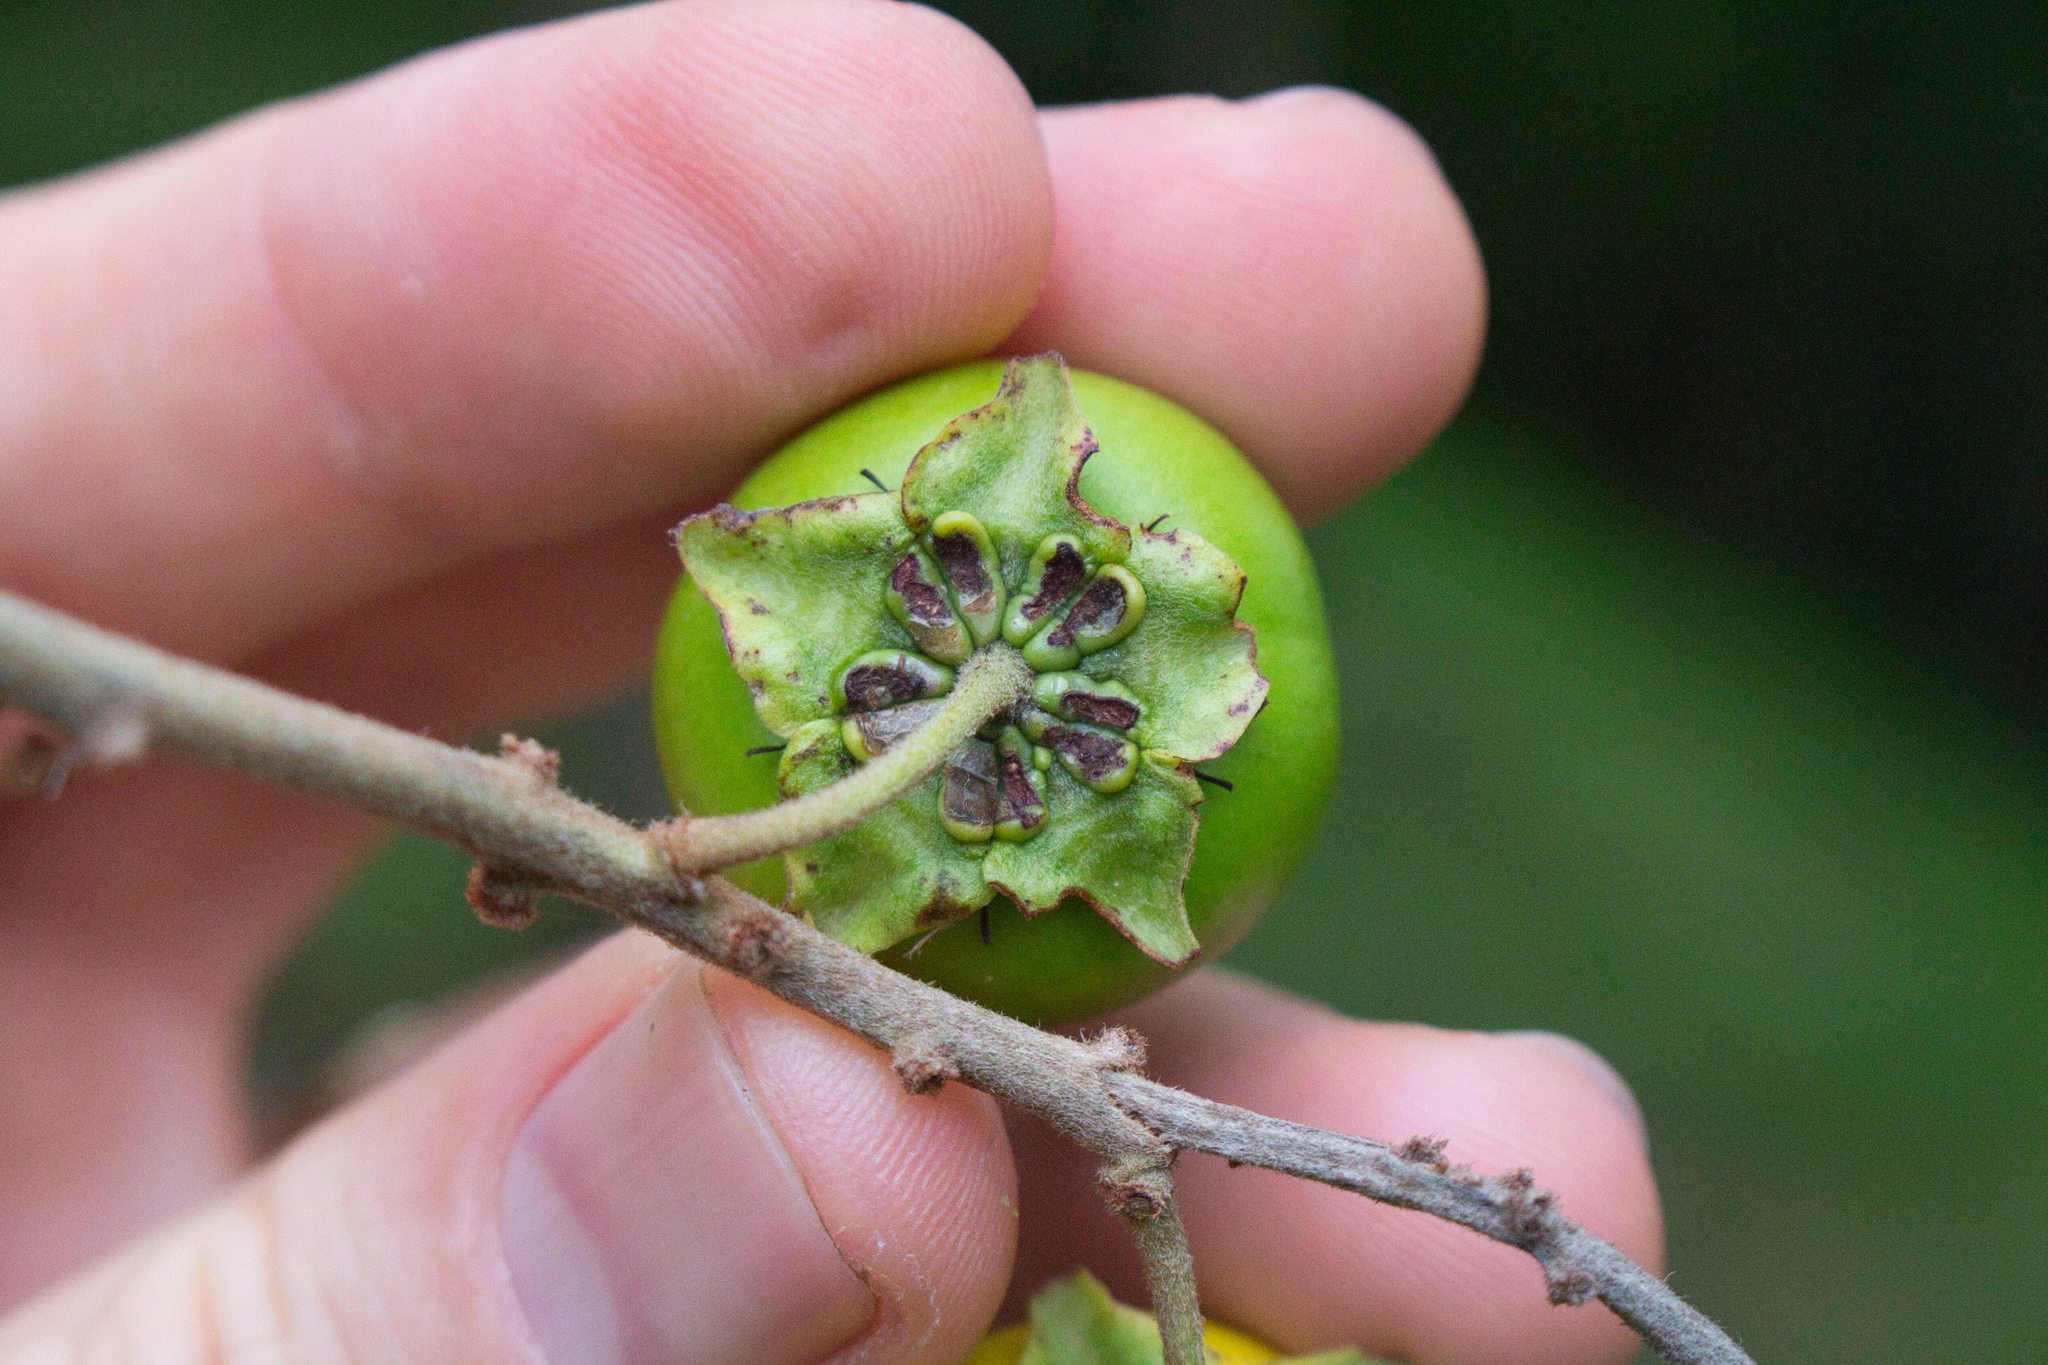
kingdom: Plantae
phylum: Tracheophyta
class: Magnoliopsida
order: Malpighiales
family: Malpighiaceae
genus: Byrsonima
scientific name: Byrsonima crassifolia
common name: Golden spoon
